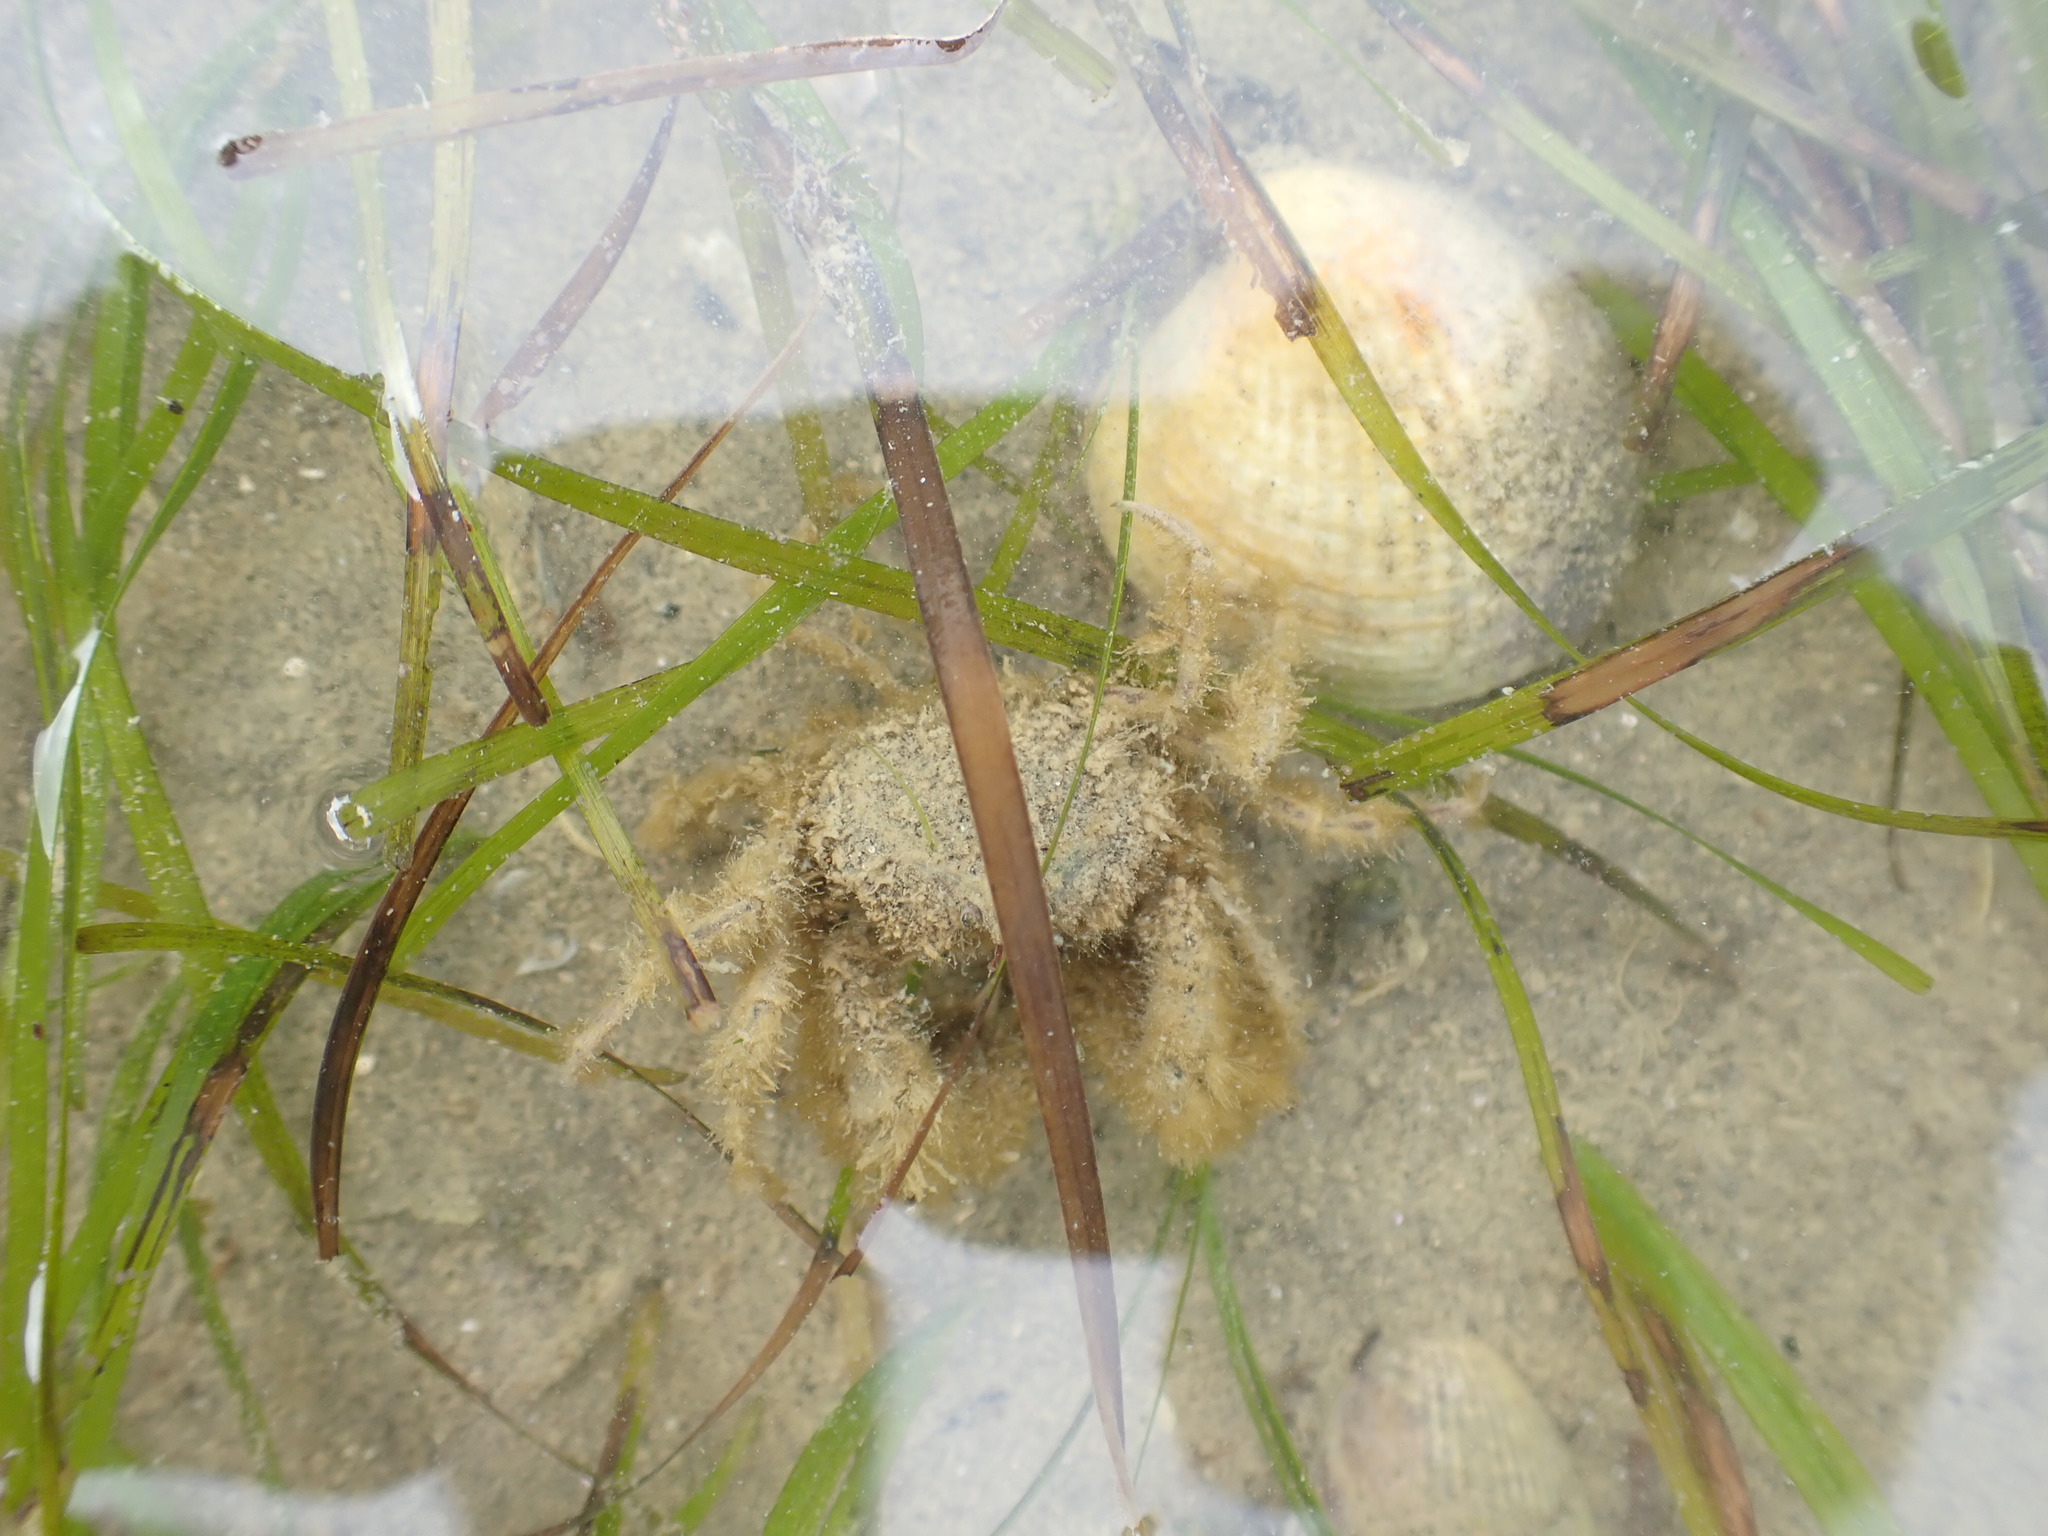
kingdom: Animalia
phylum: Arthropoda
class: Malacostraca
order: Decapoda
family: Hymenosomatidae
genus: Halicarcinus
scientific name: Halicarcinus whitei
